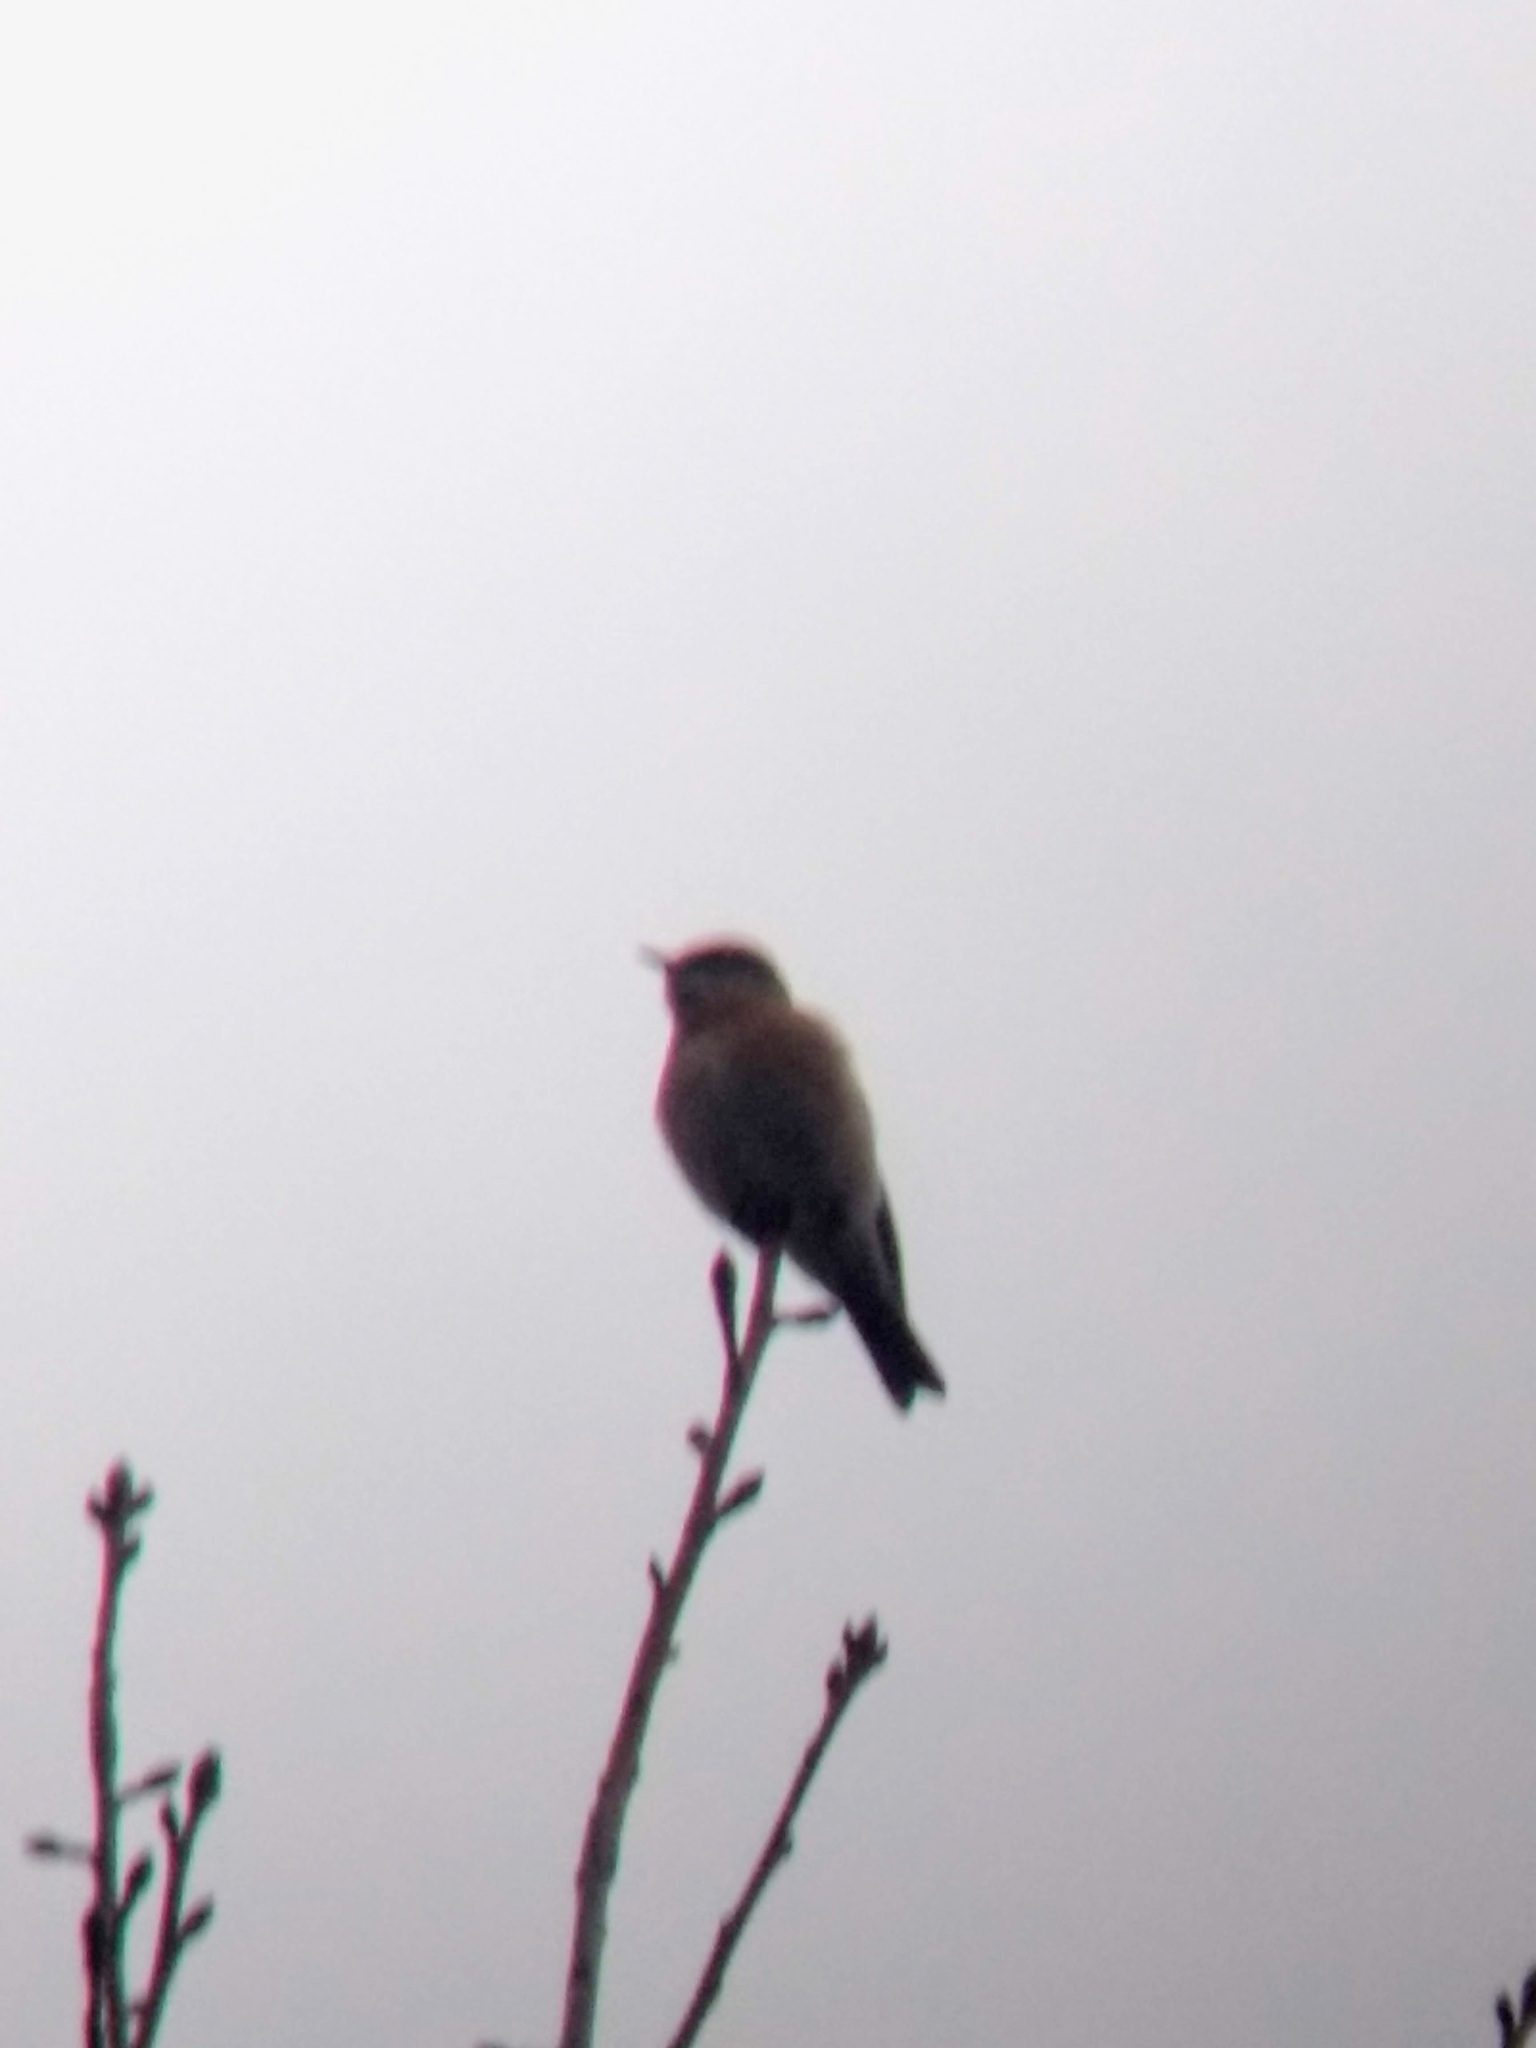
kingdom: Animalia
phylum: Chordata
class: Aves
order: Passeriformes
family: Turdidae
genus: Sialia
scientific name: Sialia mexicana
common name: Western bluebird
